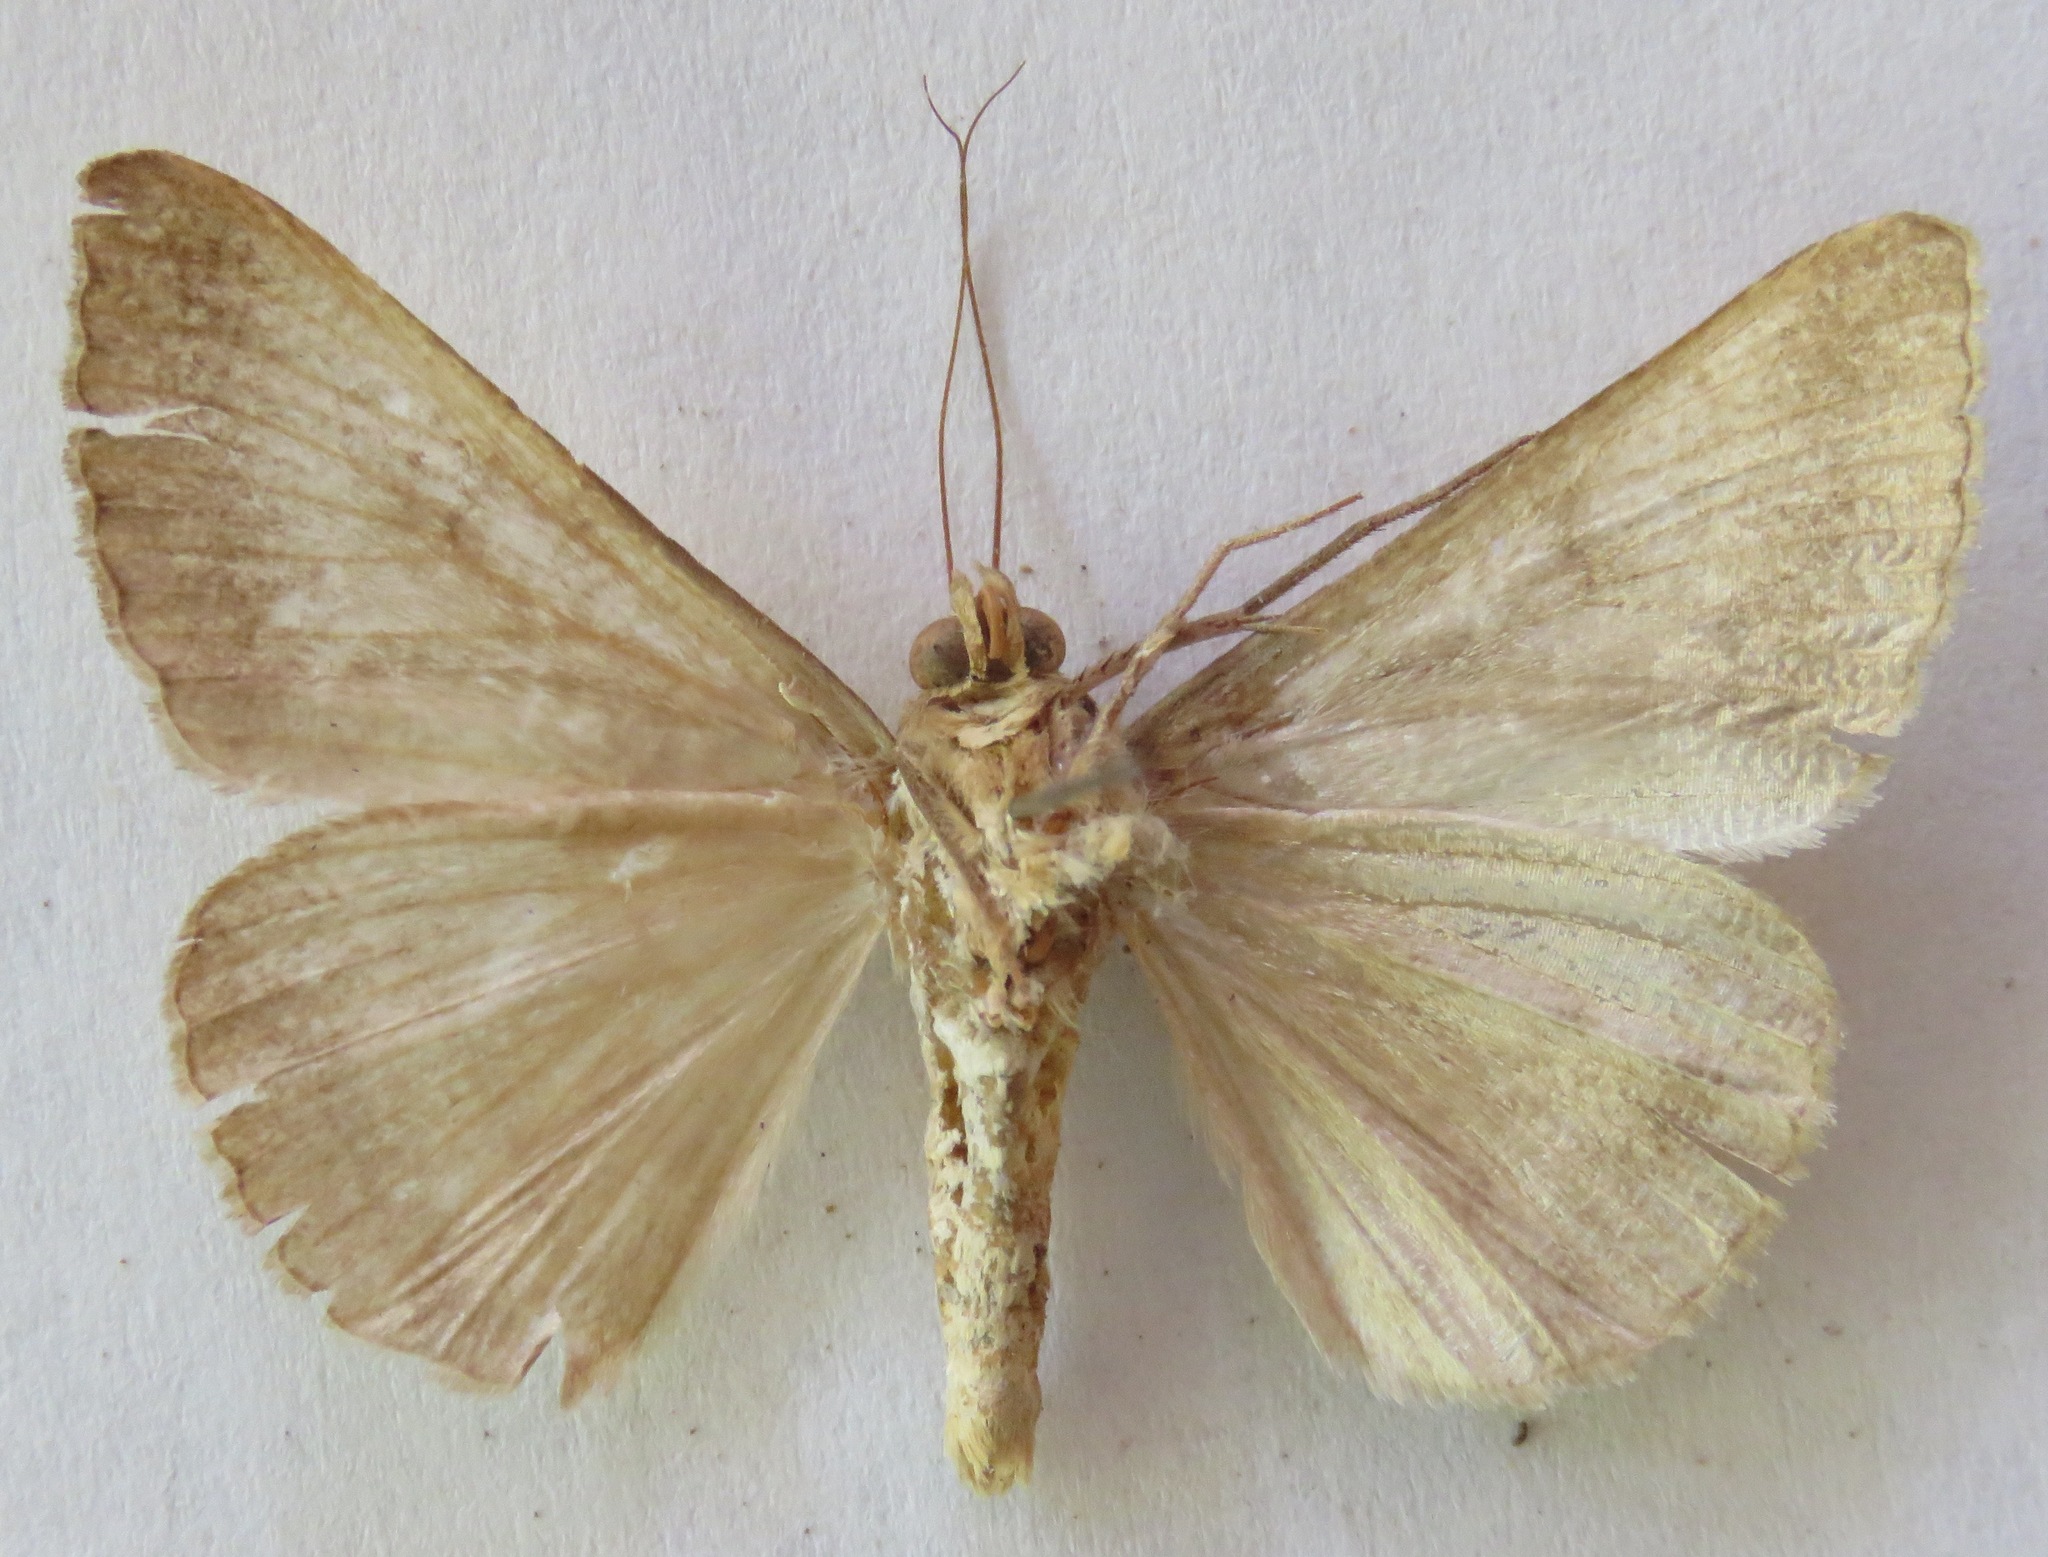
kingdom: Animalia
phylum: Arthropoda
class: Insecta
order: Lepidoptera
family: Erebidae
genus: Mocis
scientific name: Mocis latipes
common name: Striped grass looper
